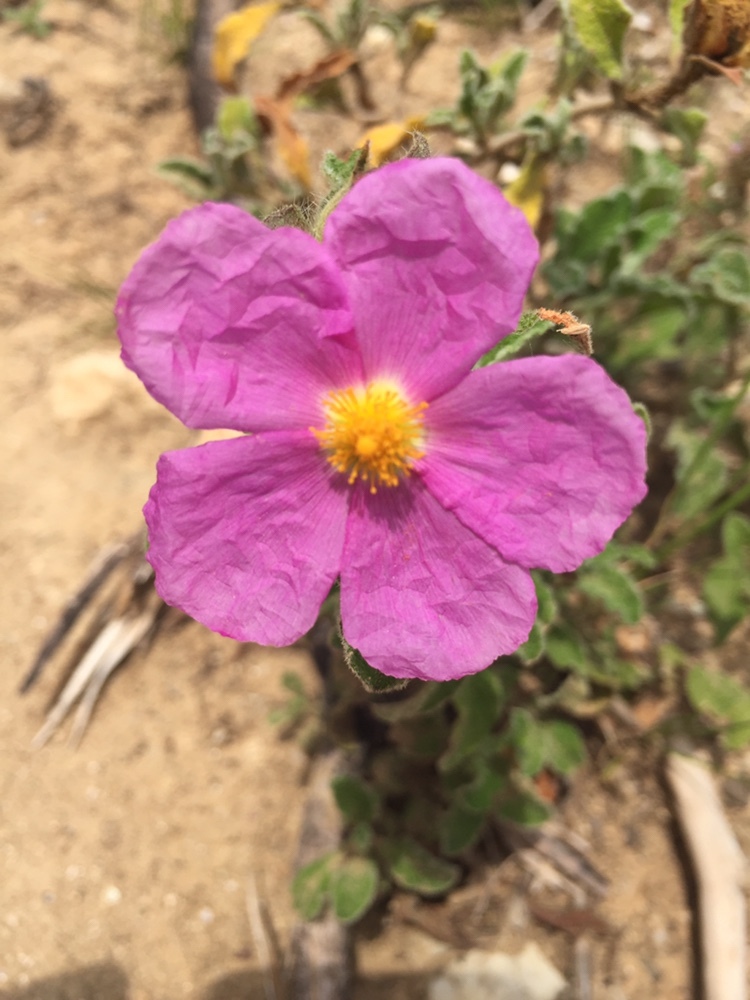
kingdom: Plantae
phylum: Tracheophyta
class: Magnoliopsida
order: Malvales
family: Cistaceae
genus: Cistus
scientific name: Cistus creticus
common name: Cretan rockrose
